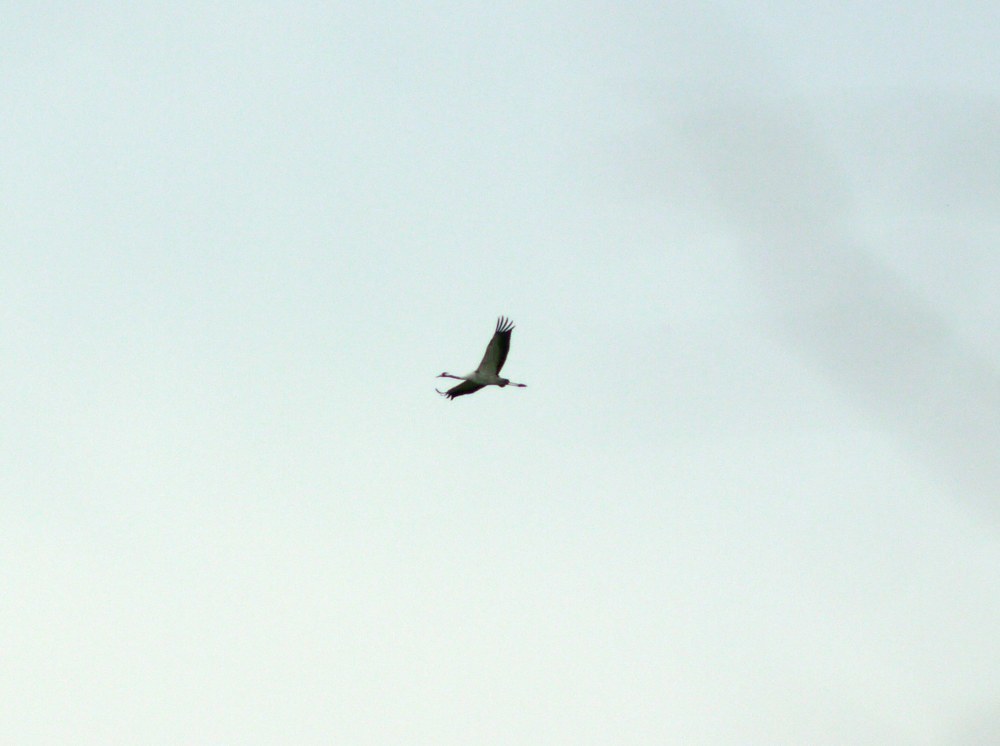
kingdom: Animalia
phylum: Chordata
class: Aves
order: Gruiformes
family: Gruidae
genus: Grus
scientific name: Grus grus
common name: Common crane
